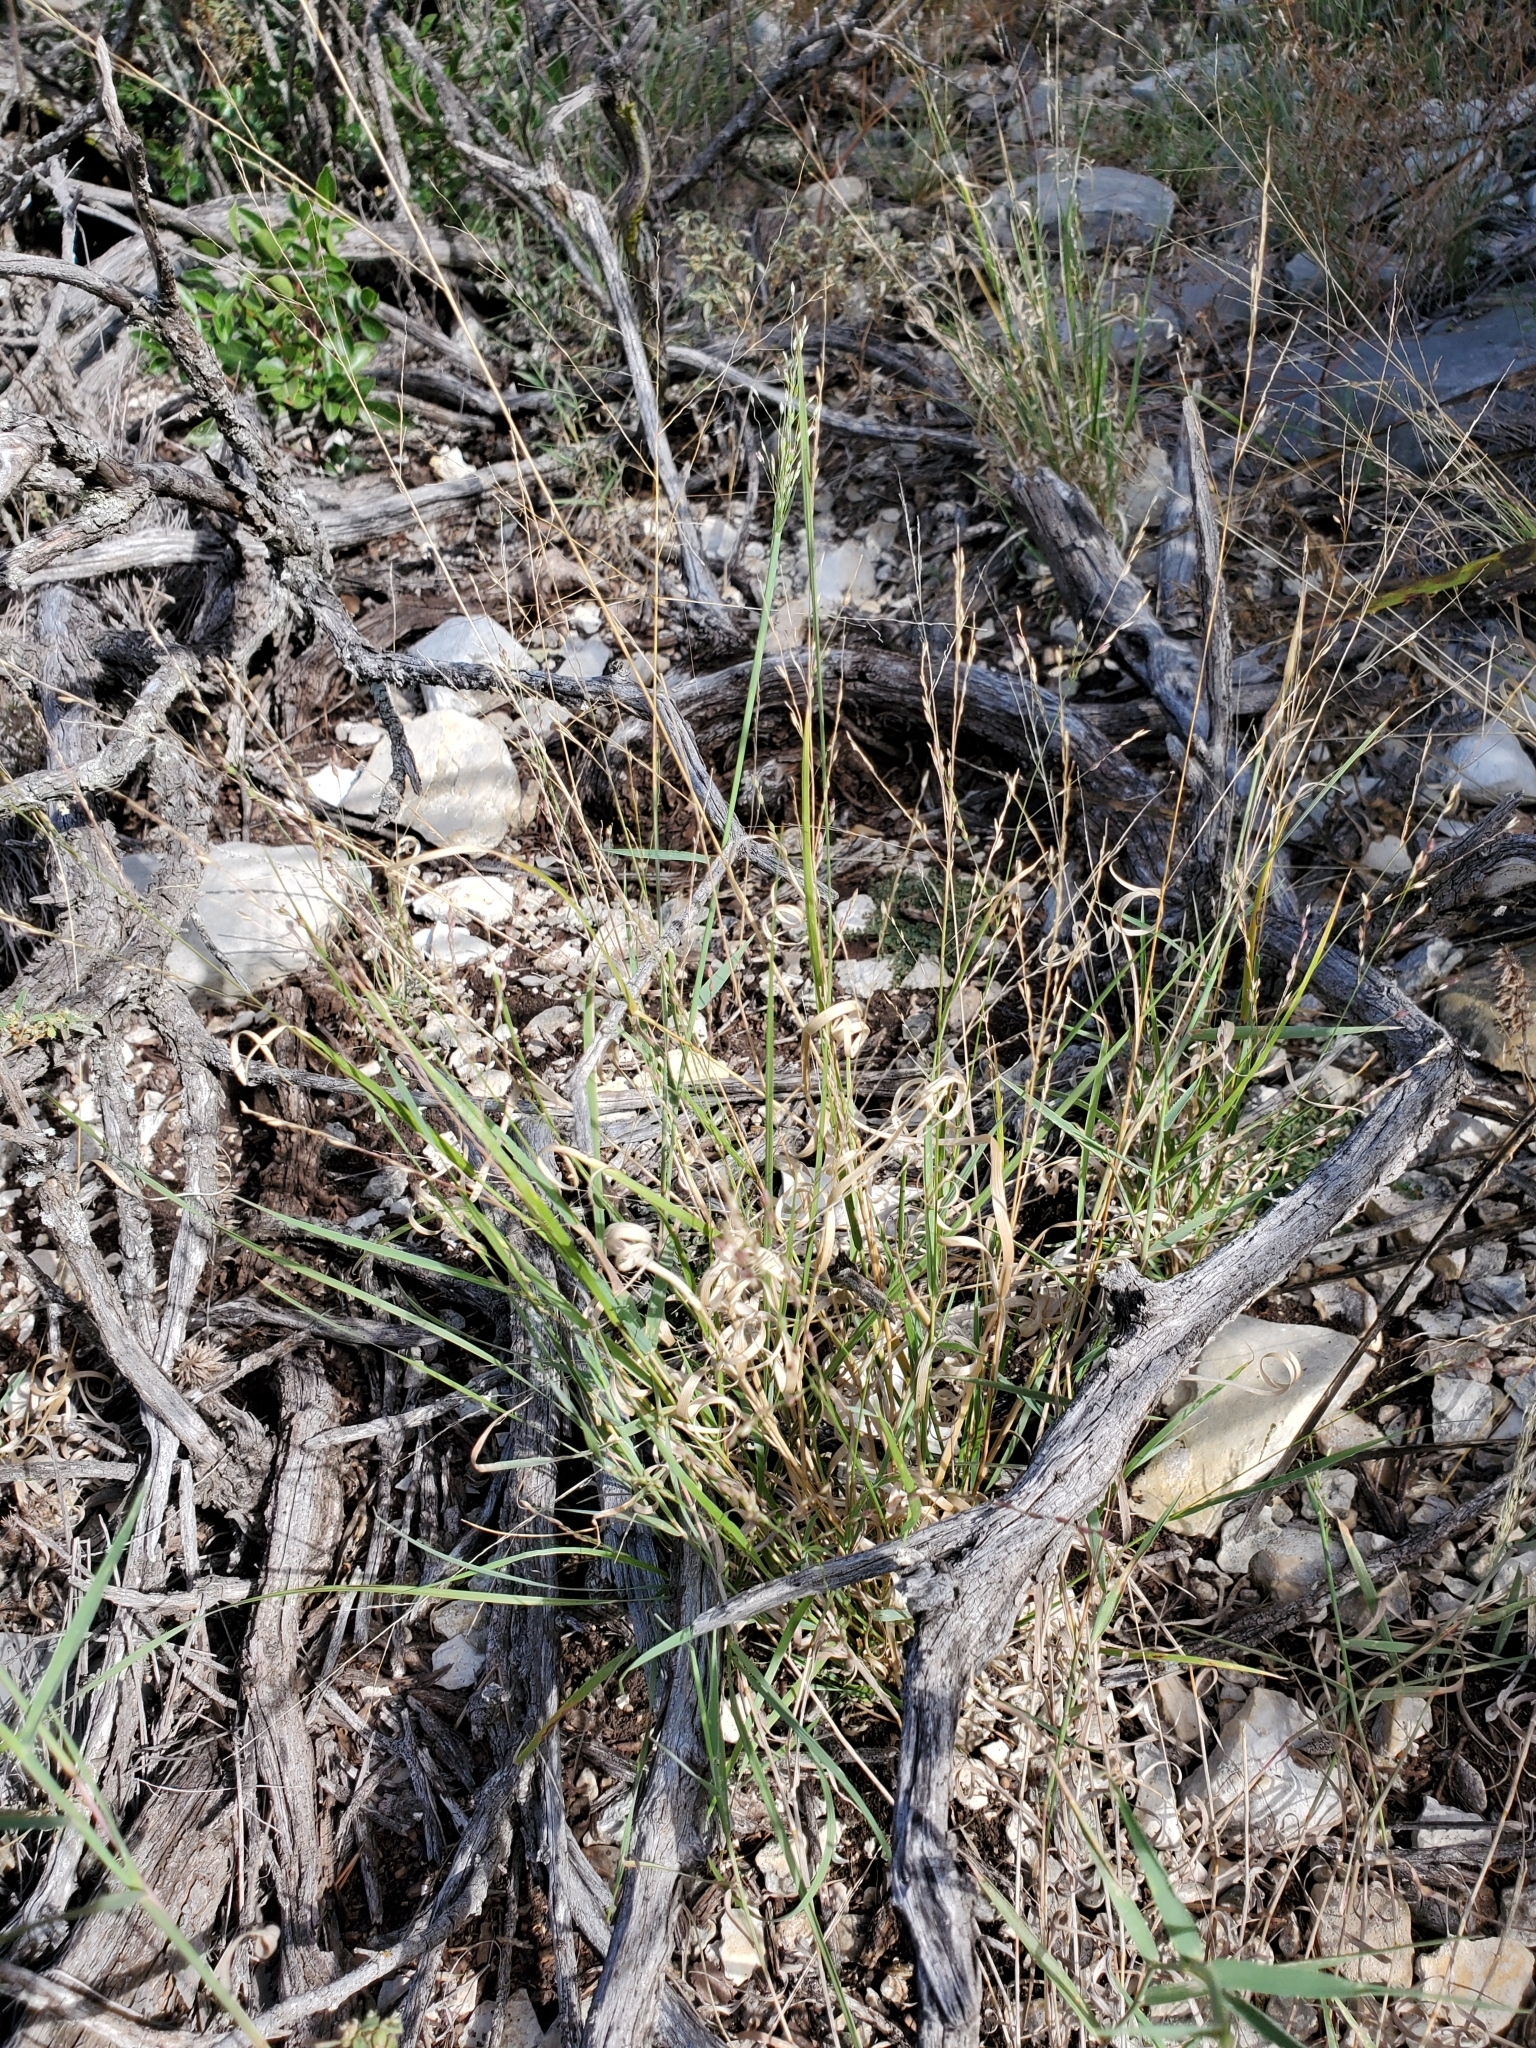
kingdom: Plantae
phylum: Tracheophyta
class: Liliopsida
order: Poales
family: Poaceae
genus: Digitaria
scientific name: Digitaria cognata
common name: Fall witchgrass
